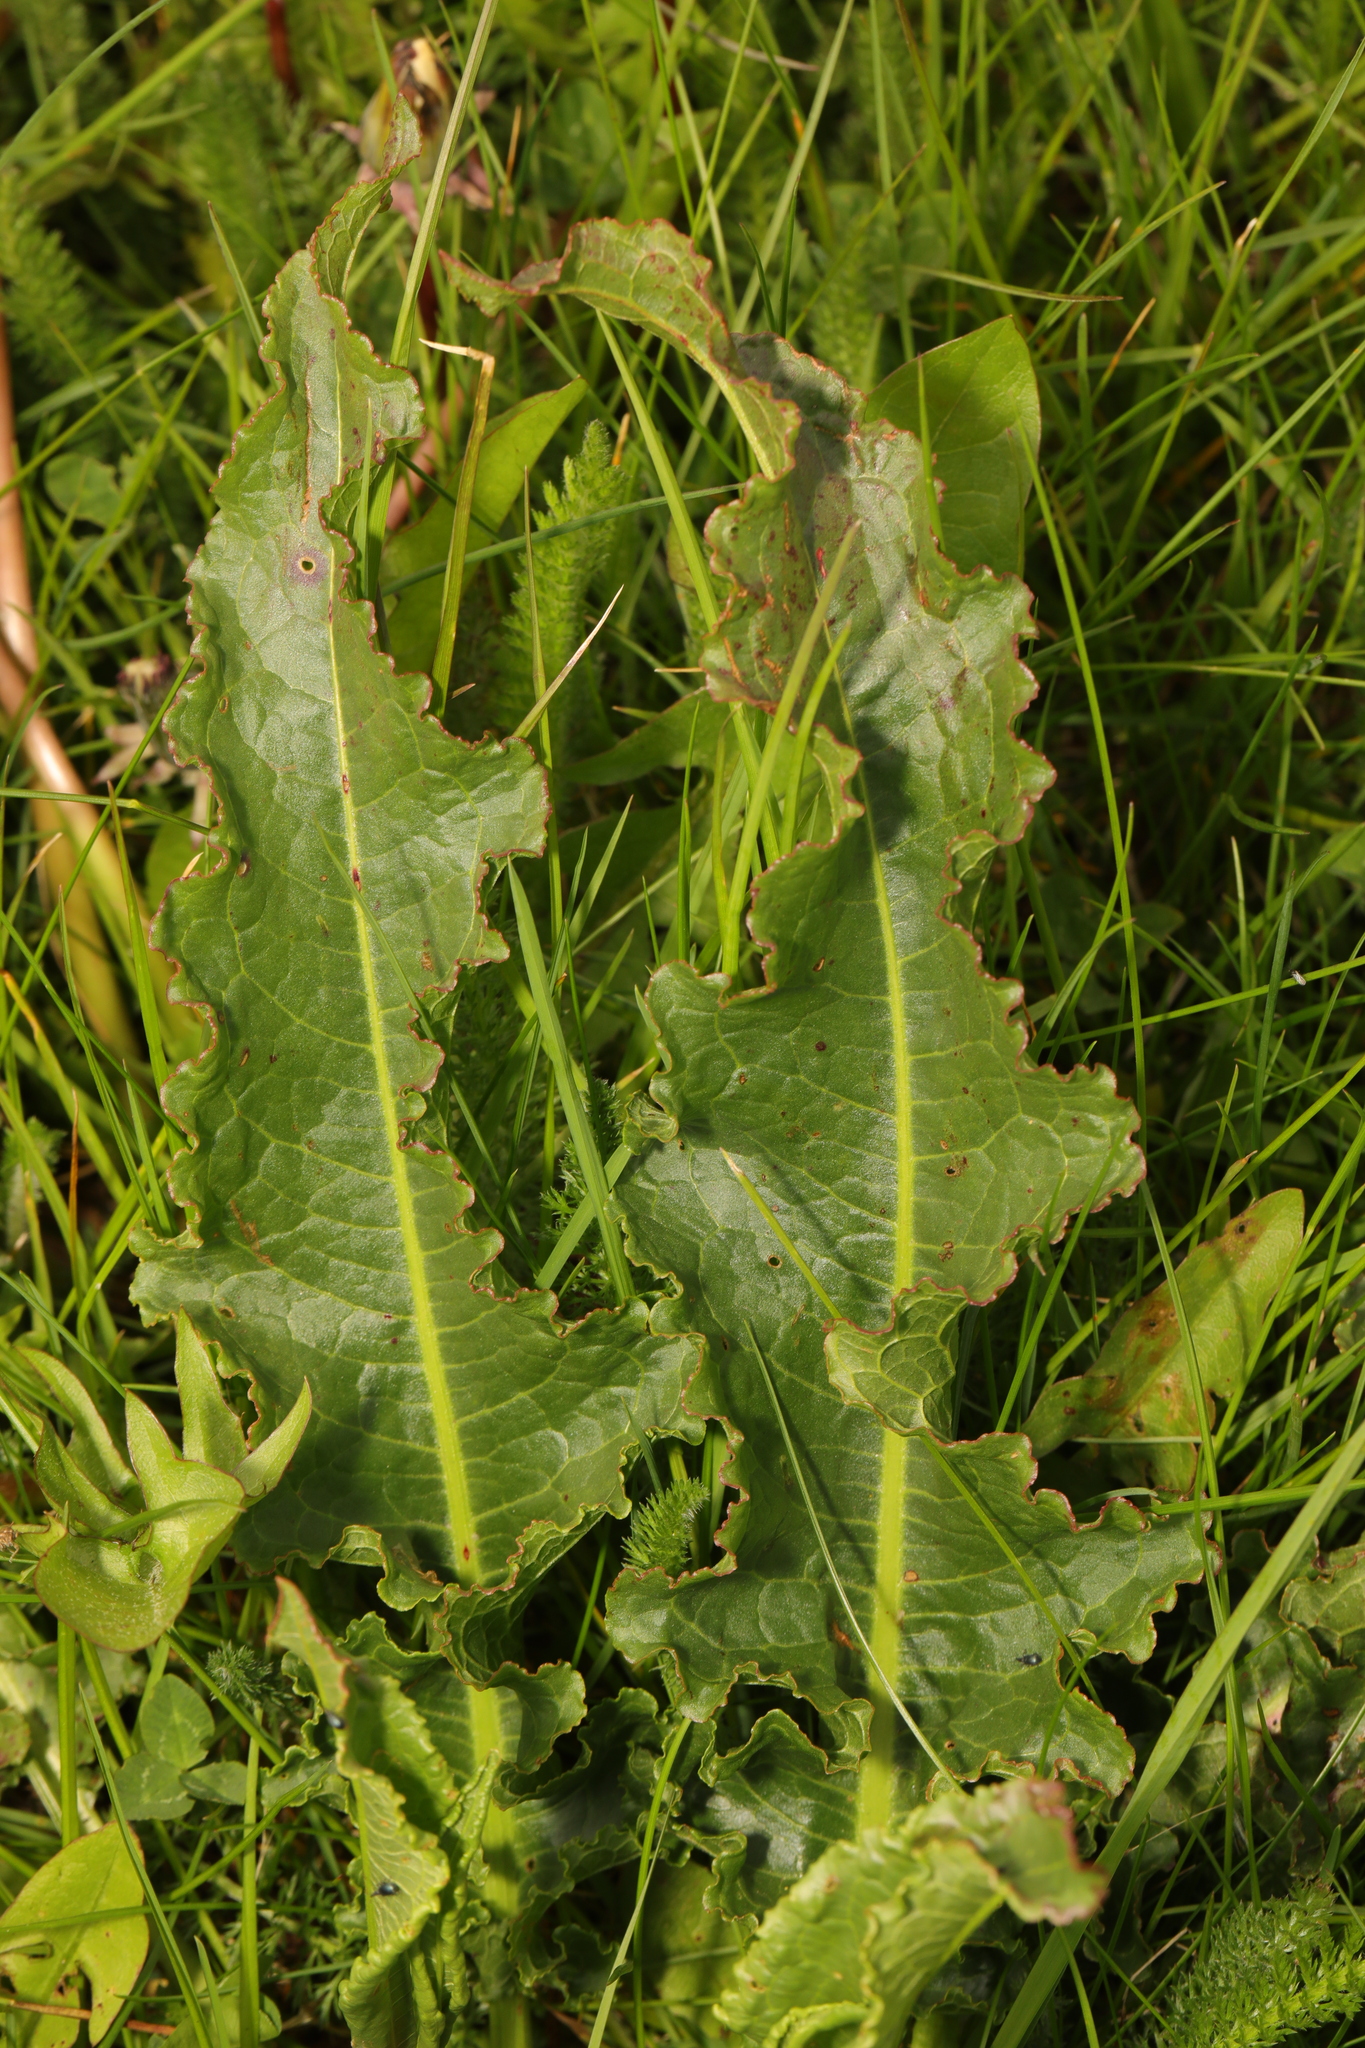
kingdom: Plantae
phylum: Tracheophyta
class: Magnoliopsida
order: Caryophyllales
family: Polygonaceae
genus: Rumex
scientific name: Rumex crispus
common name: Curled dock
